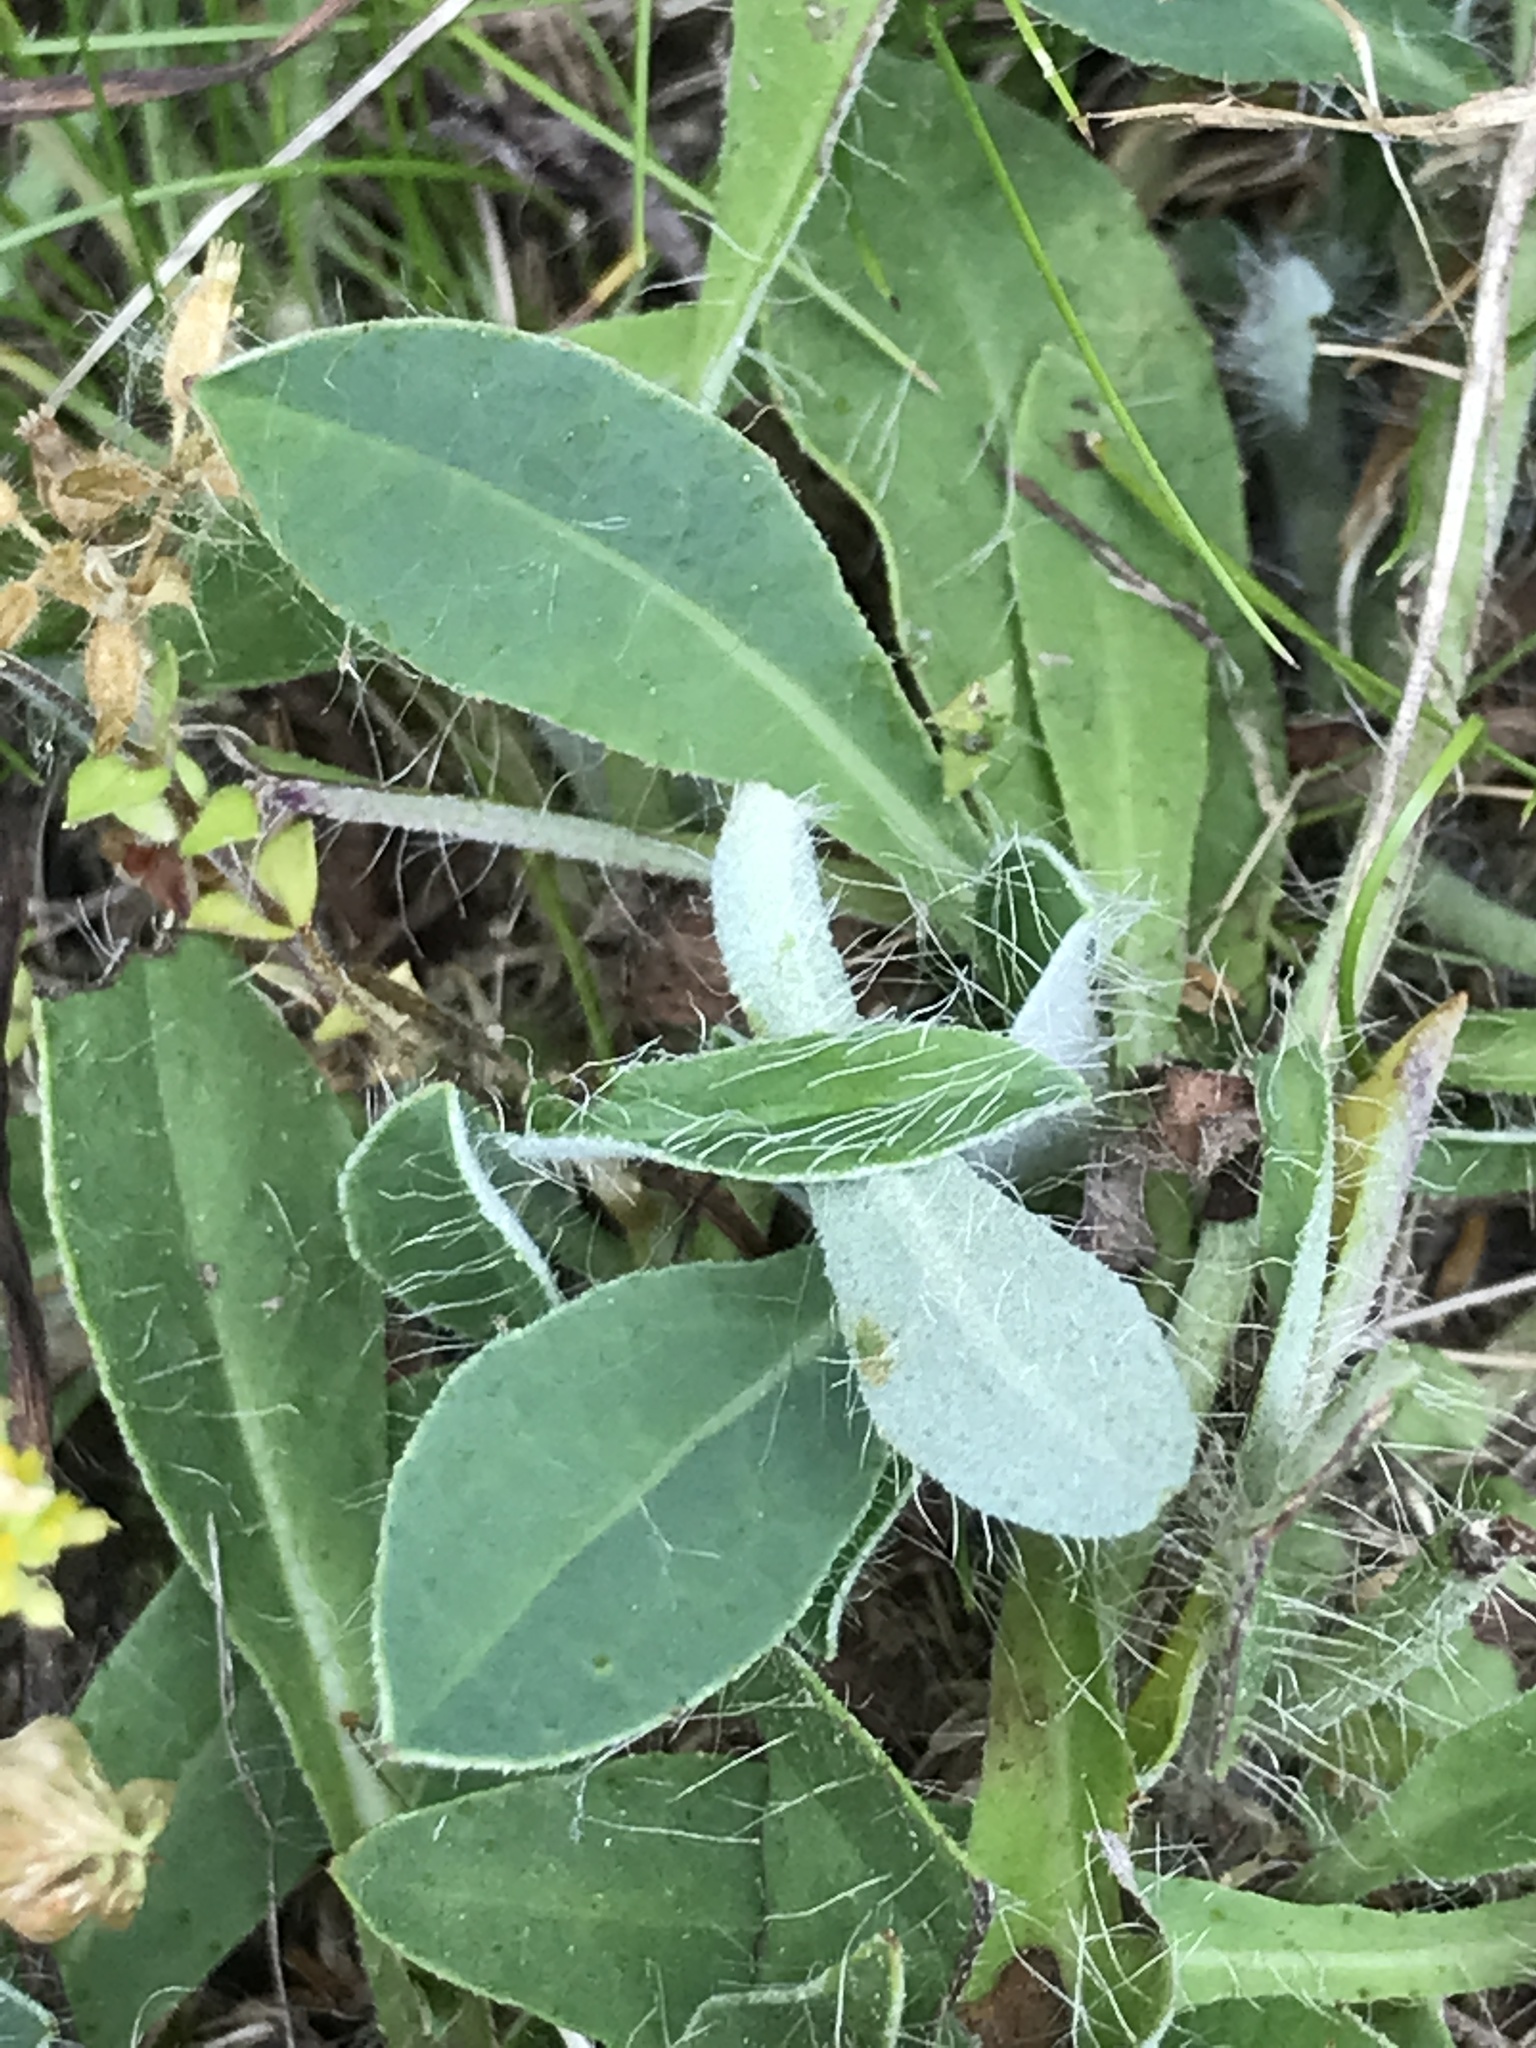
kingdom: Plantae
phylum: Tracheophyta
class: Magnoliopsida
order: Asterales
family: Asteraceae
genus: Pilosella
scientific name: Pilosella officinarum
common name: Mouse-ear hawkweed
